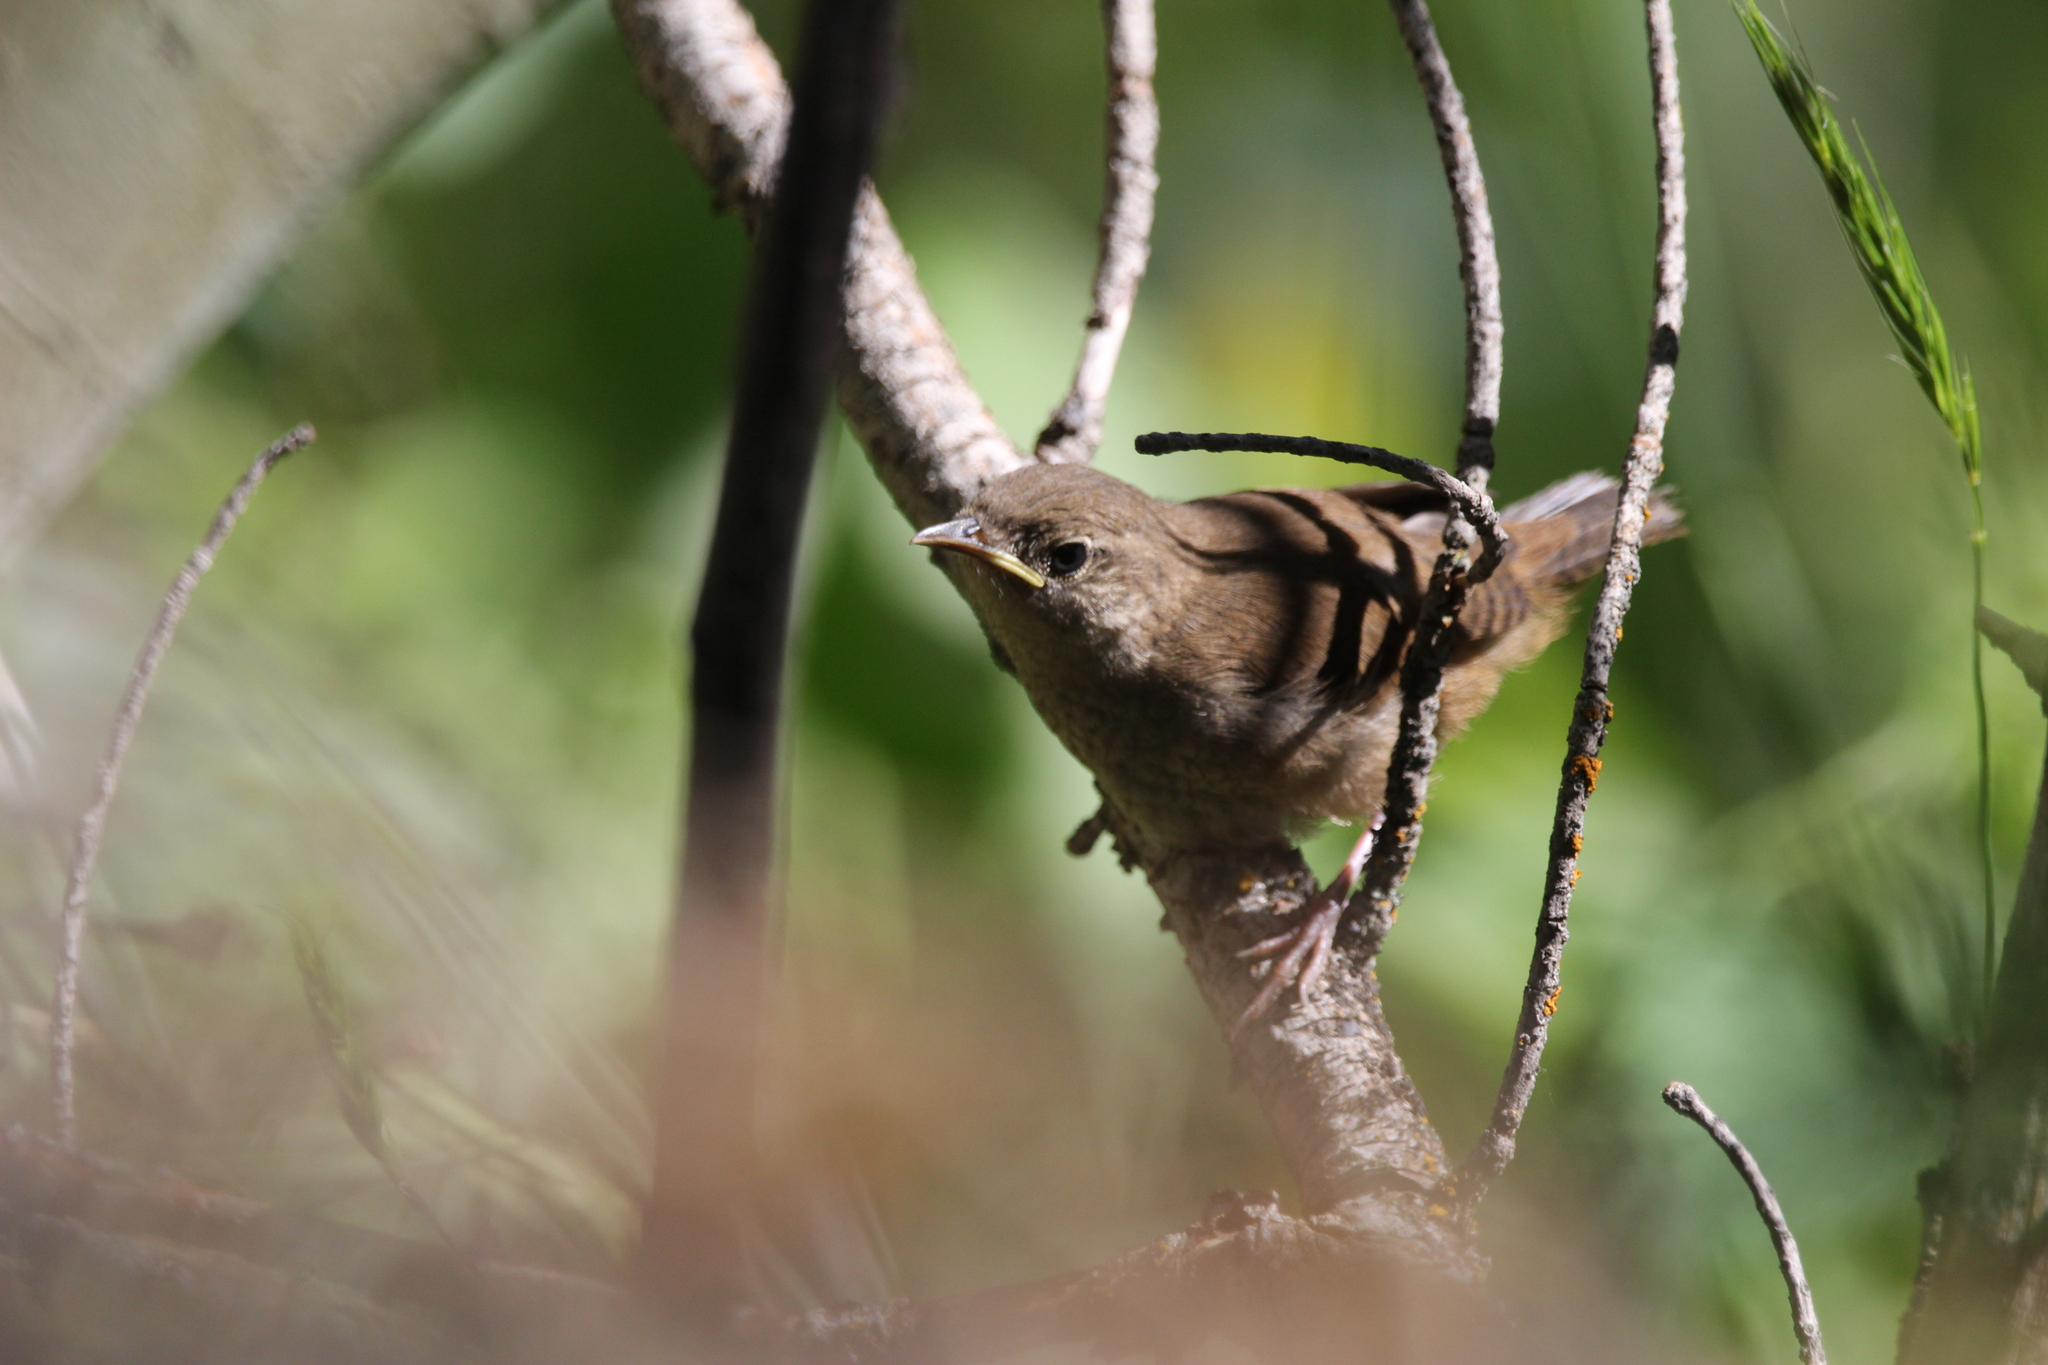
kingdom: Animalia
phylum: Chordata
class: Aves
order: Passeriformes
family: Troglodytidae
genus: Troglodytes
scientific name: Troglodytes aedon
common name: House wren
